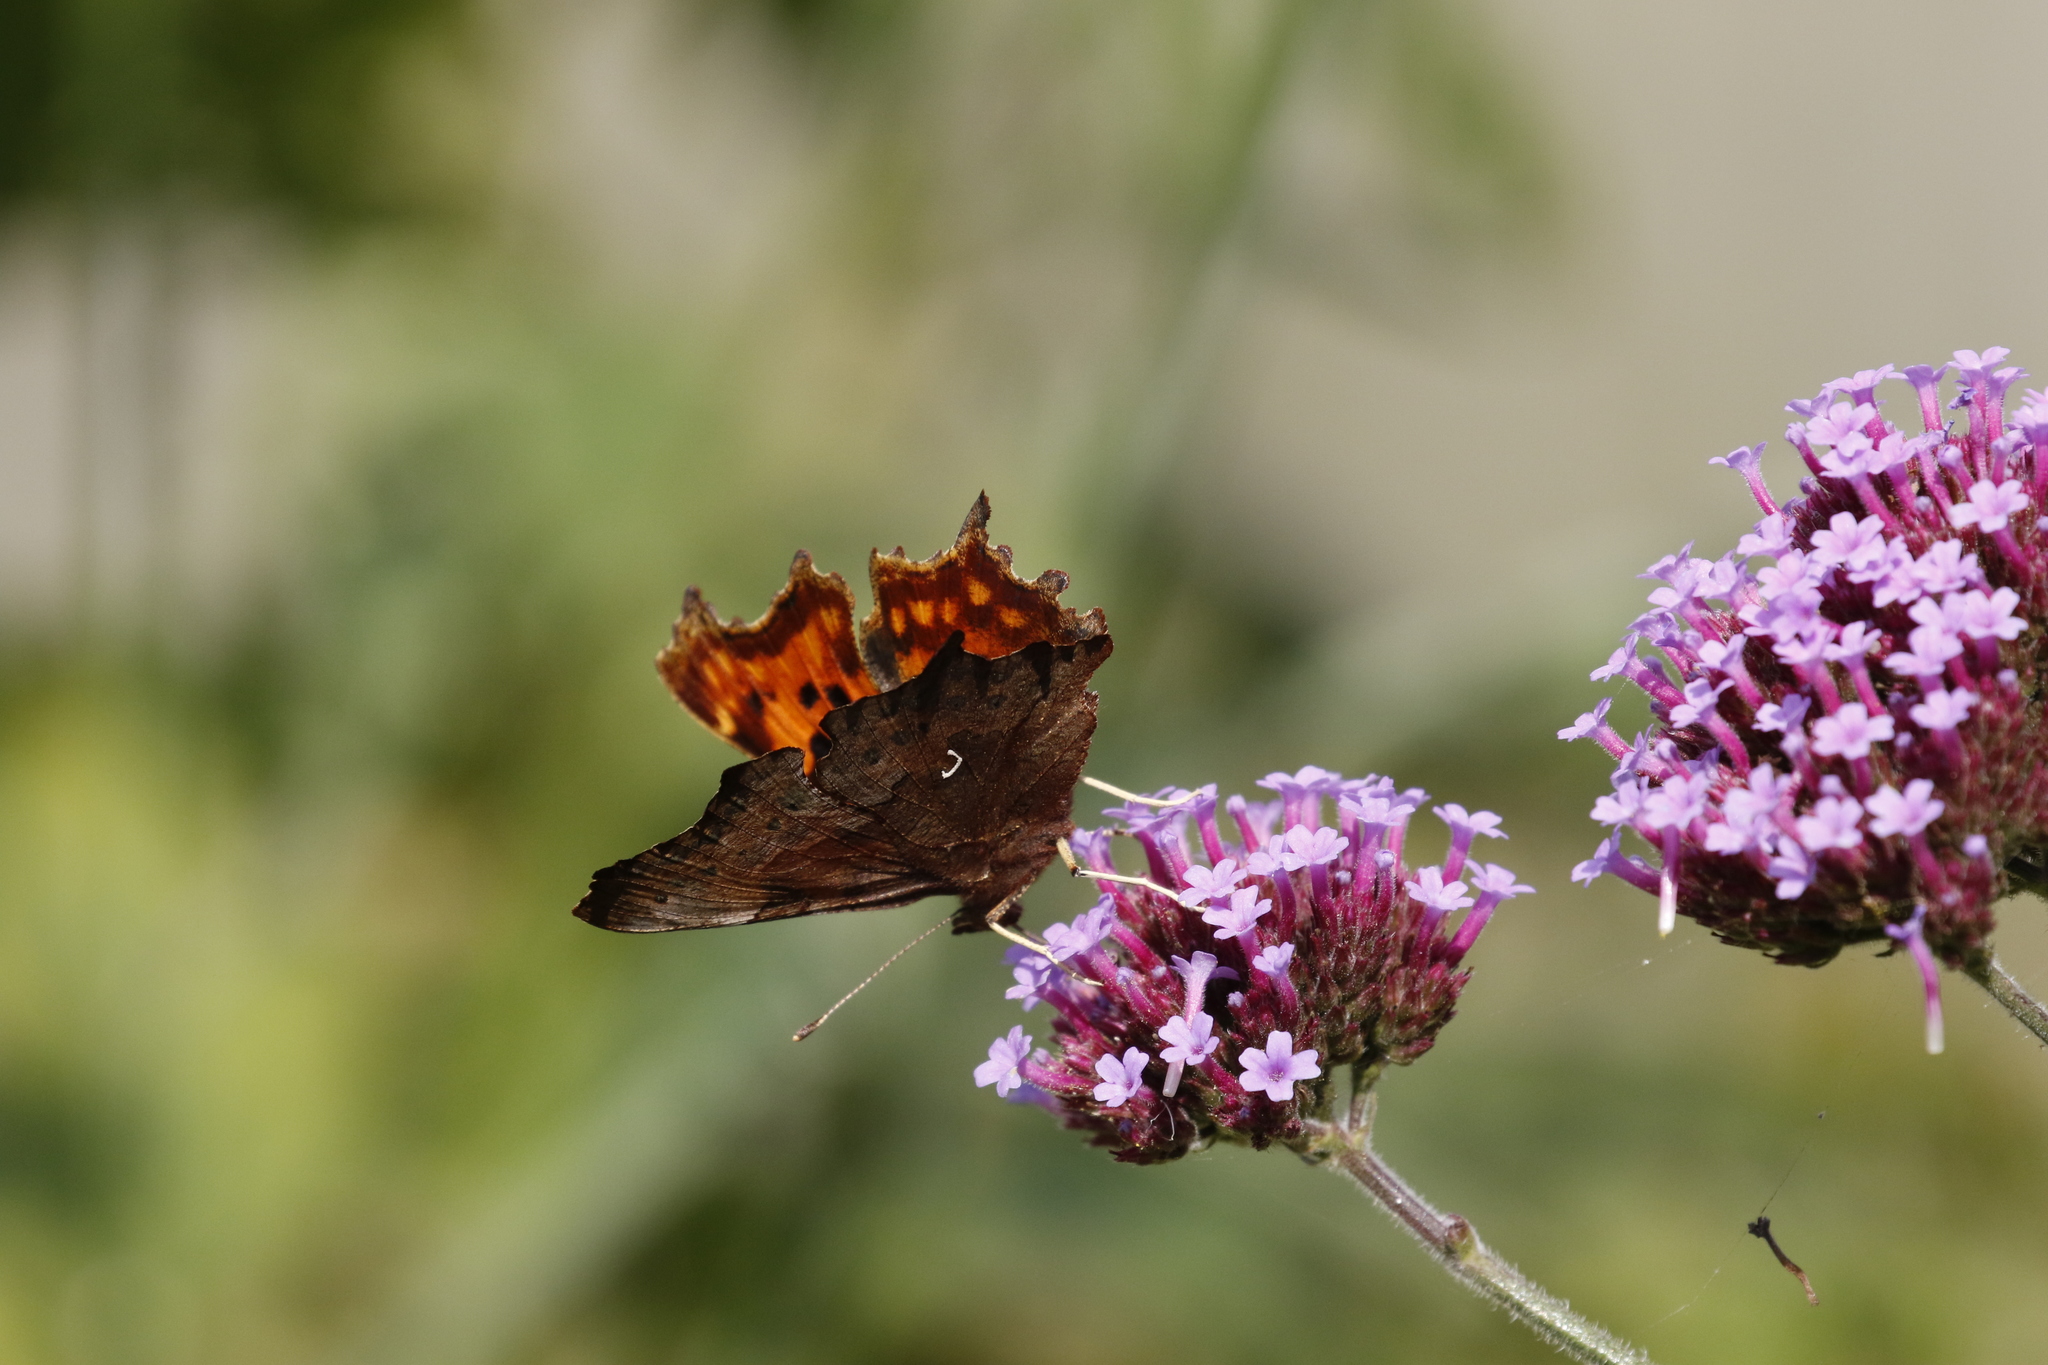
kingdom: Animalia
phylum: Arthropoda
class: Insecta
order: Lepidoptera
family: Nymphalidae
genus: Polygonia
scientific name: Polygonia c-album
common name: Comma
